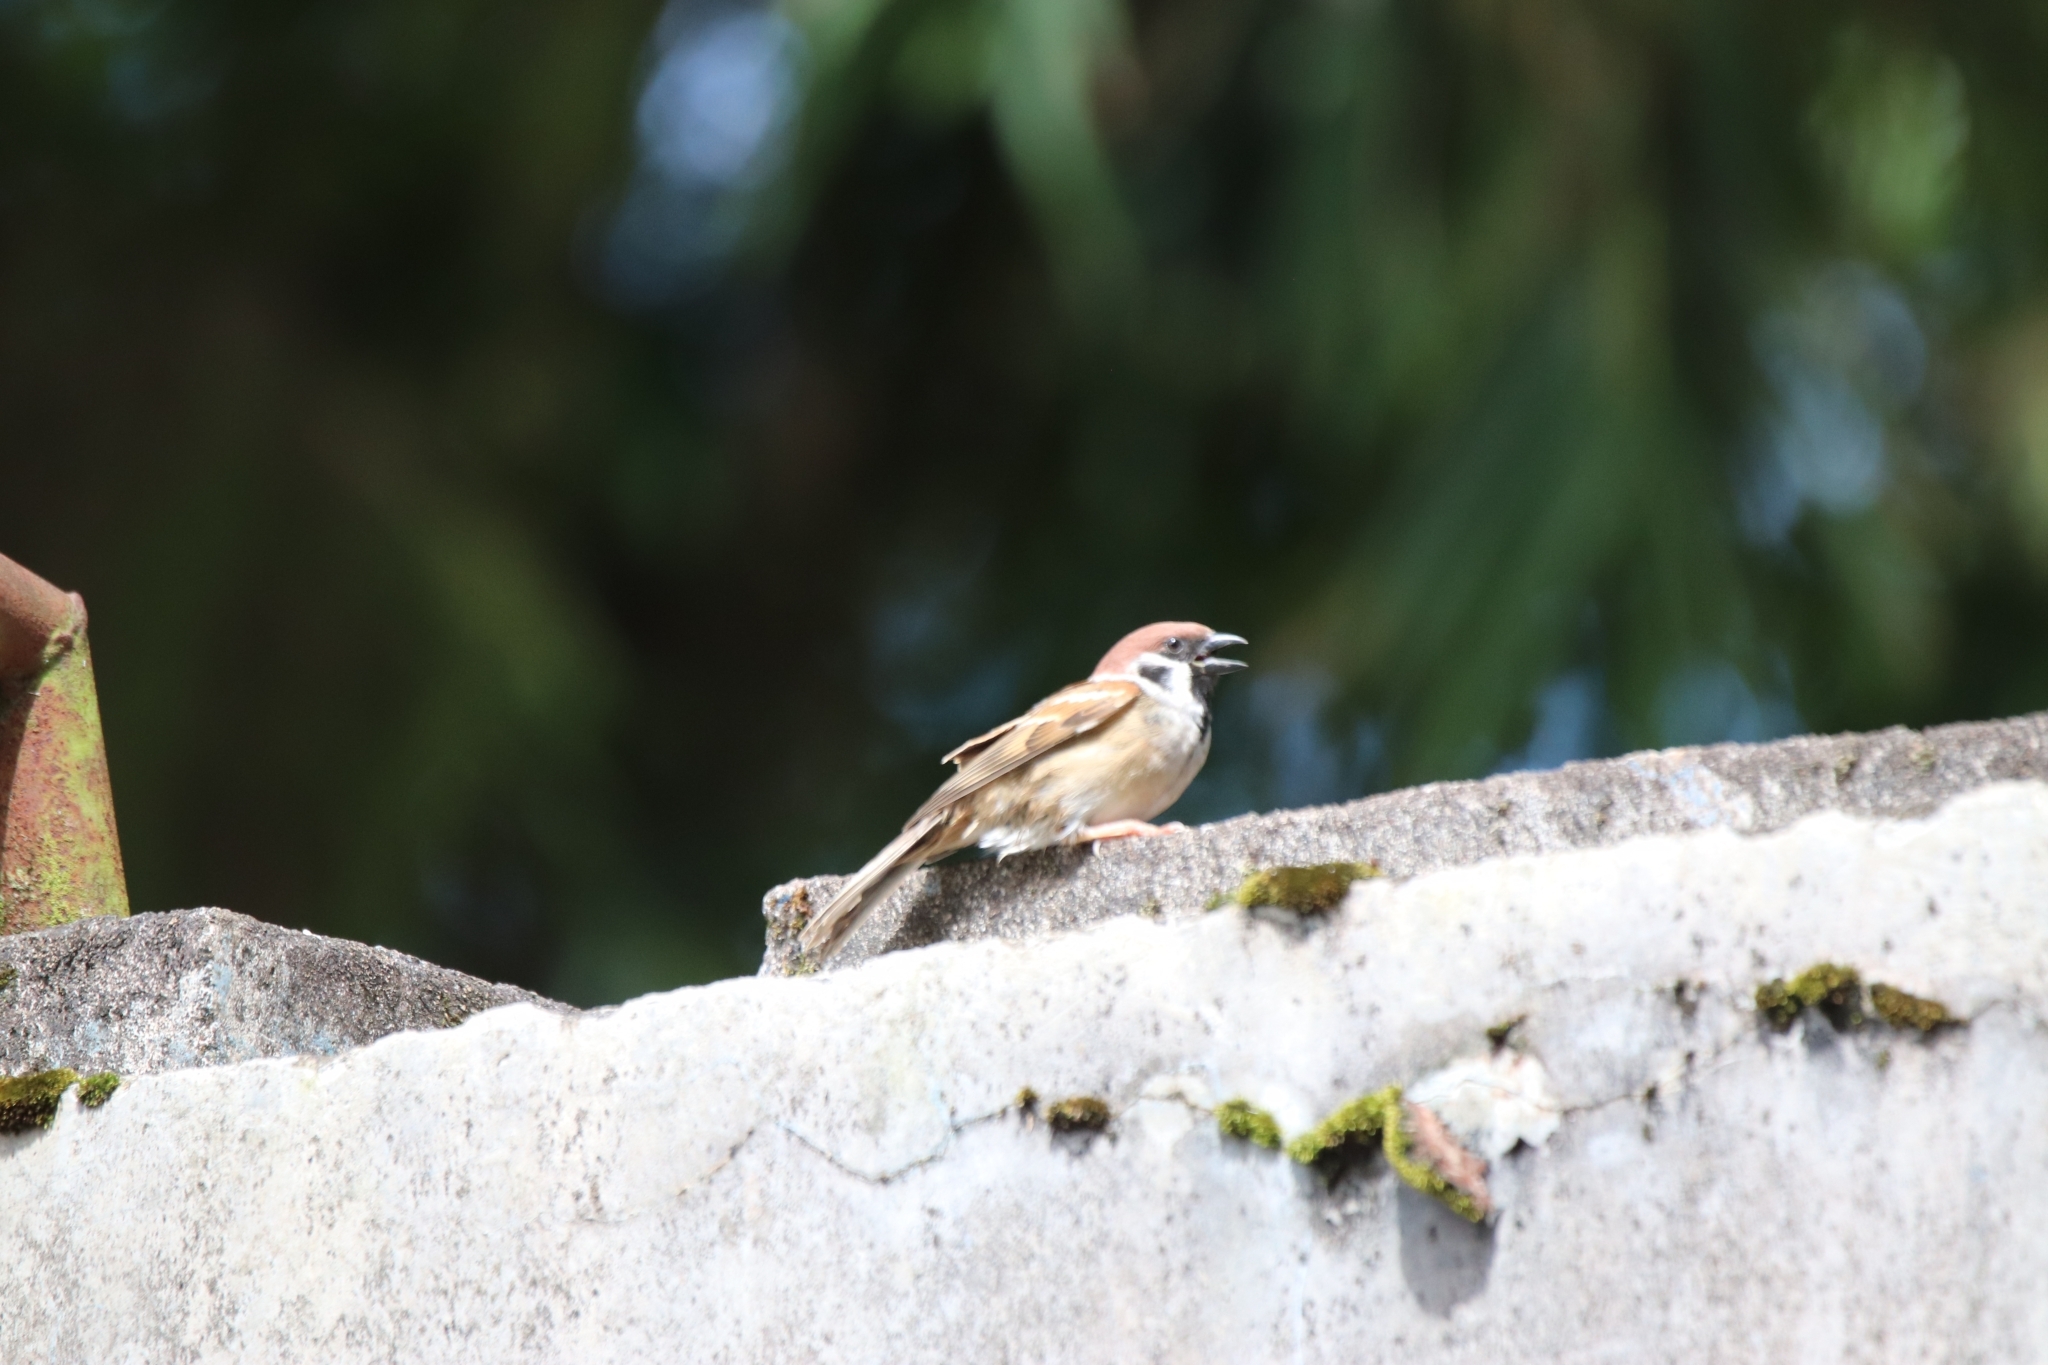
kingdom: Animalia
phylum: Chordata
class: Aves
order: Passeriformes
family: Passeridae
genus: Passer
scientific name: Passer montanus
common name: Eurasian tree sparrow
